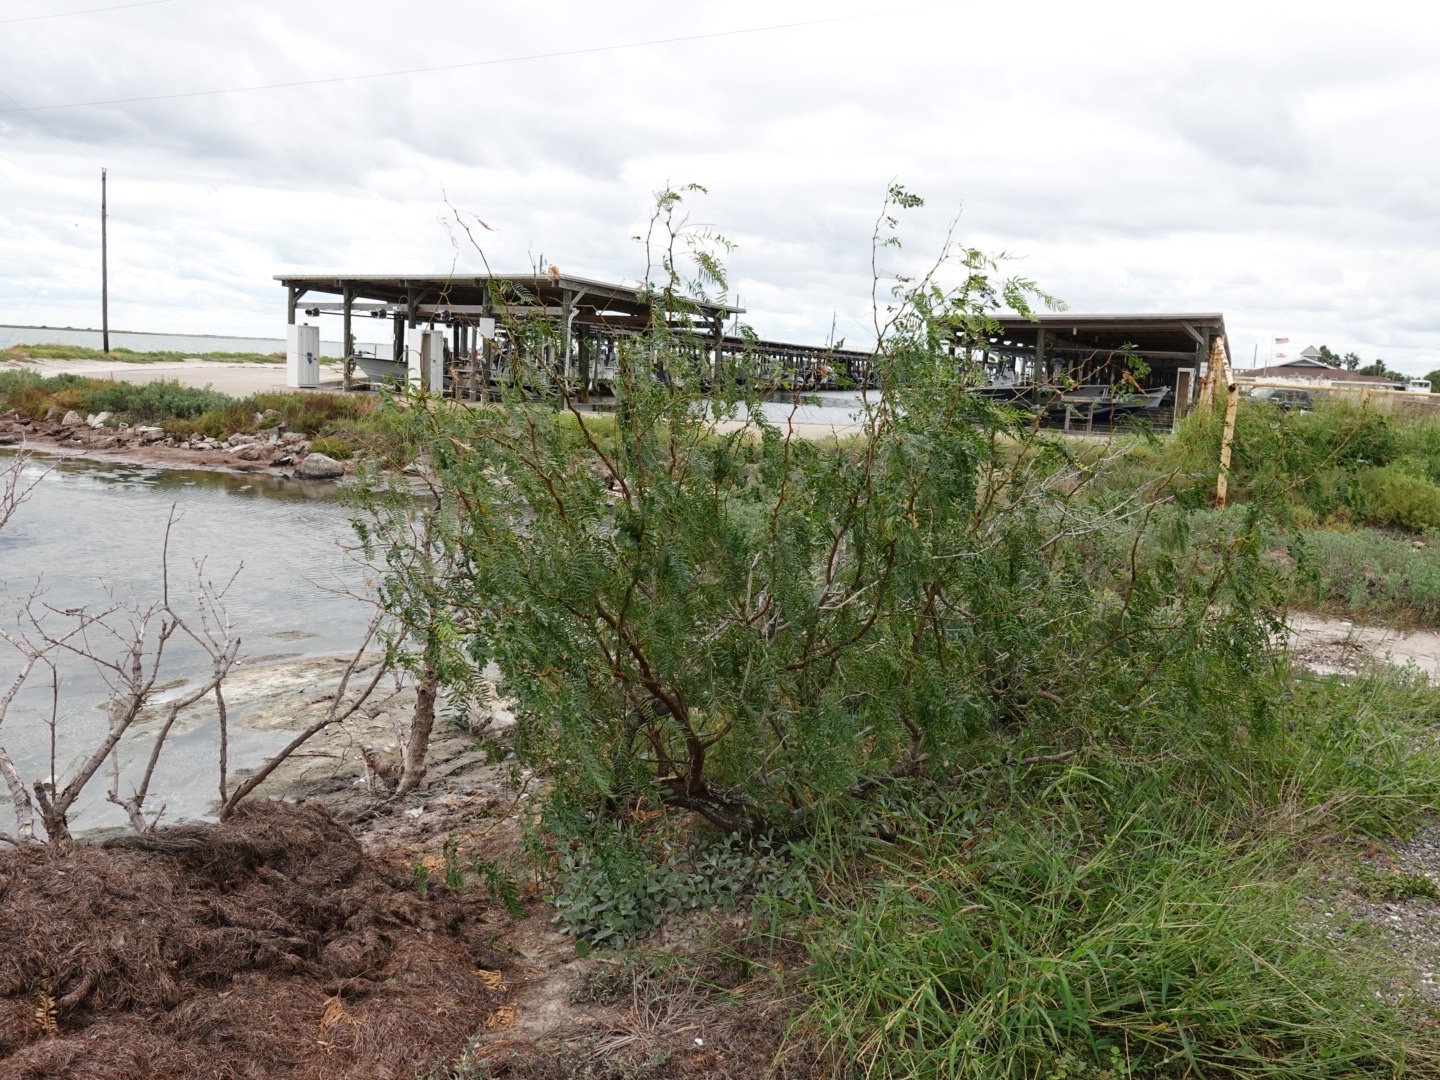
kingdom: Plantae
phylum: Tracheophyta
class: Magnoliopsida
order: Fabales
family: Fabaceae
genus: Prosopis
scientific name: Prosopis glandulosa
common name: Honey mesquite
